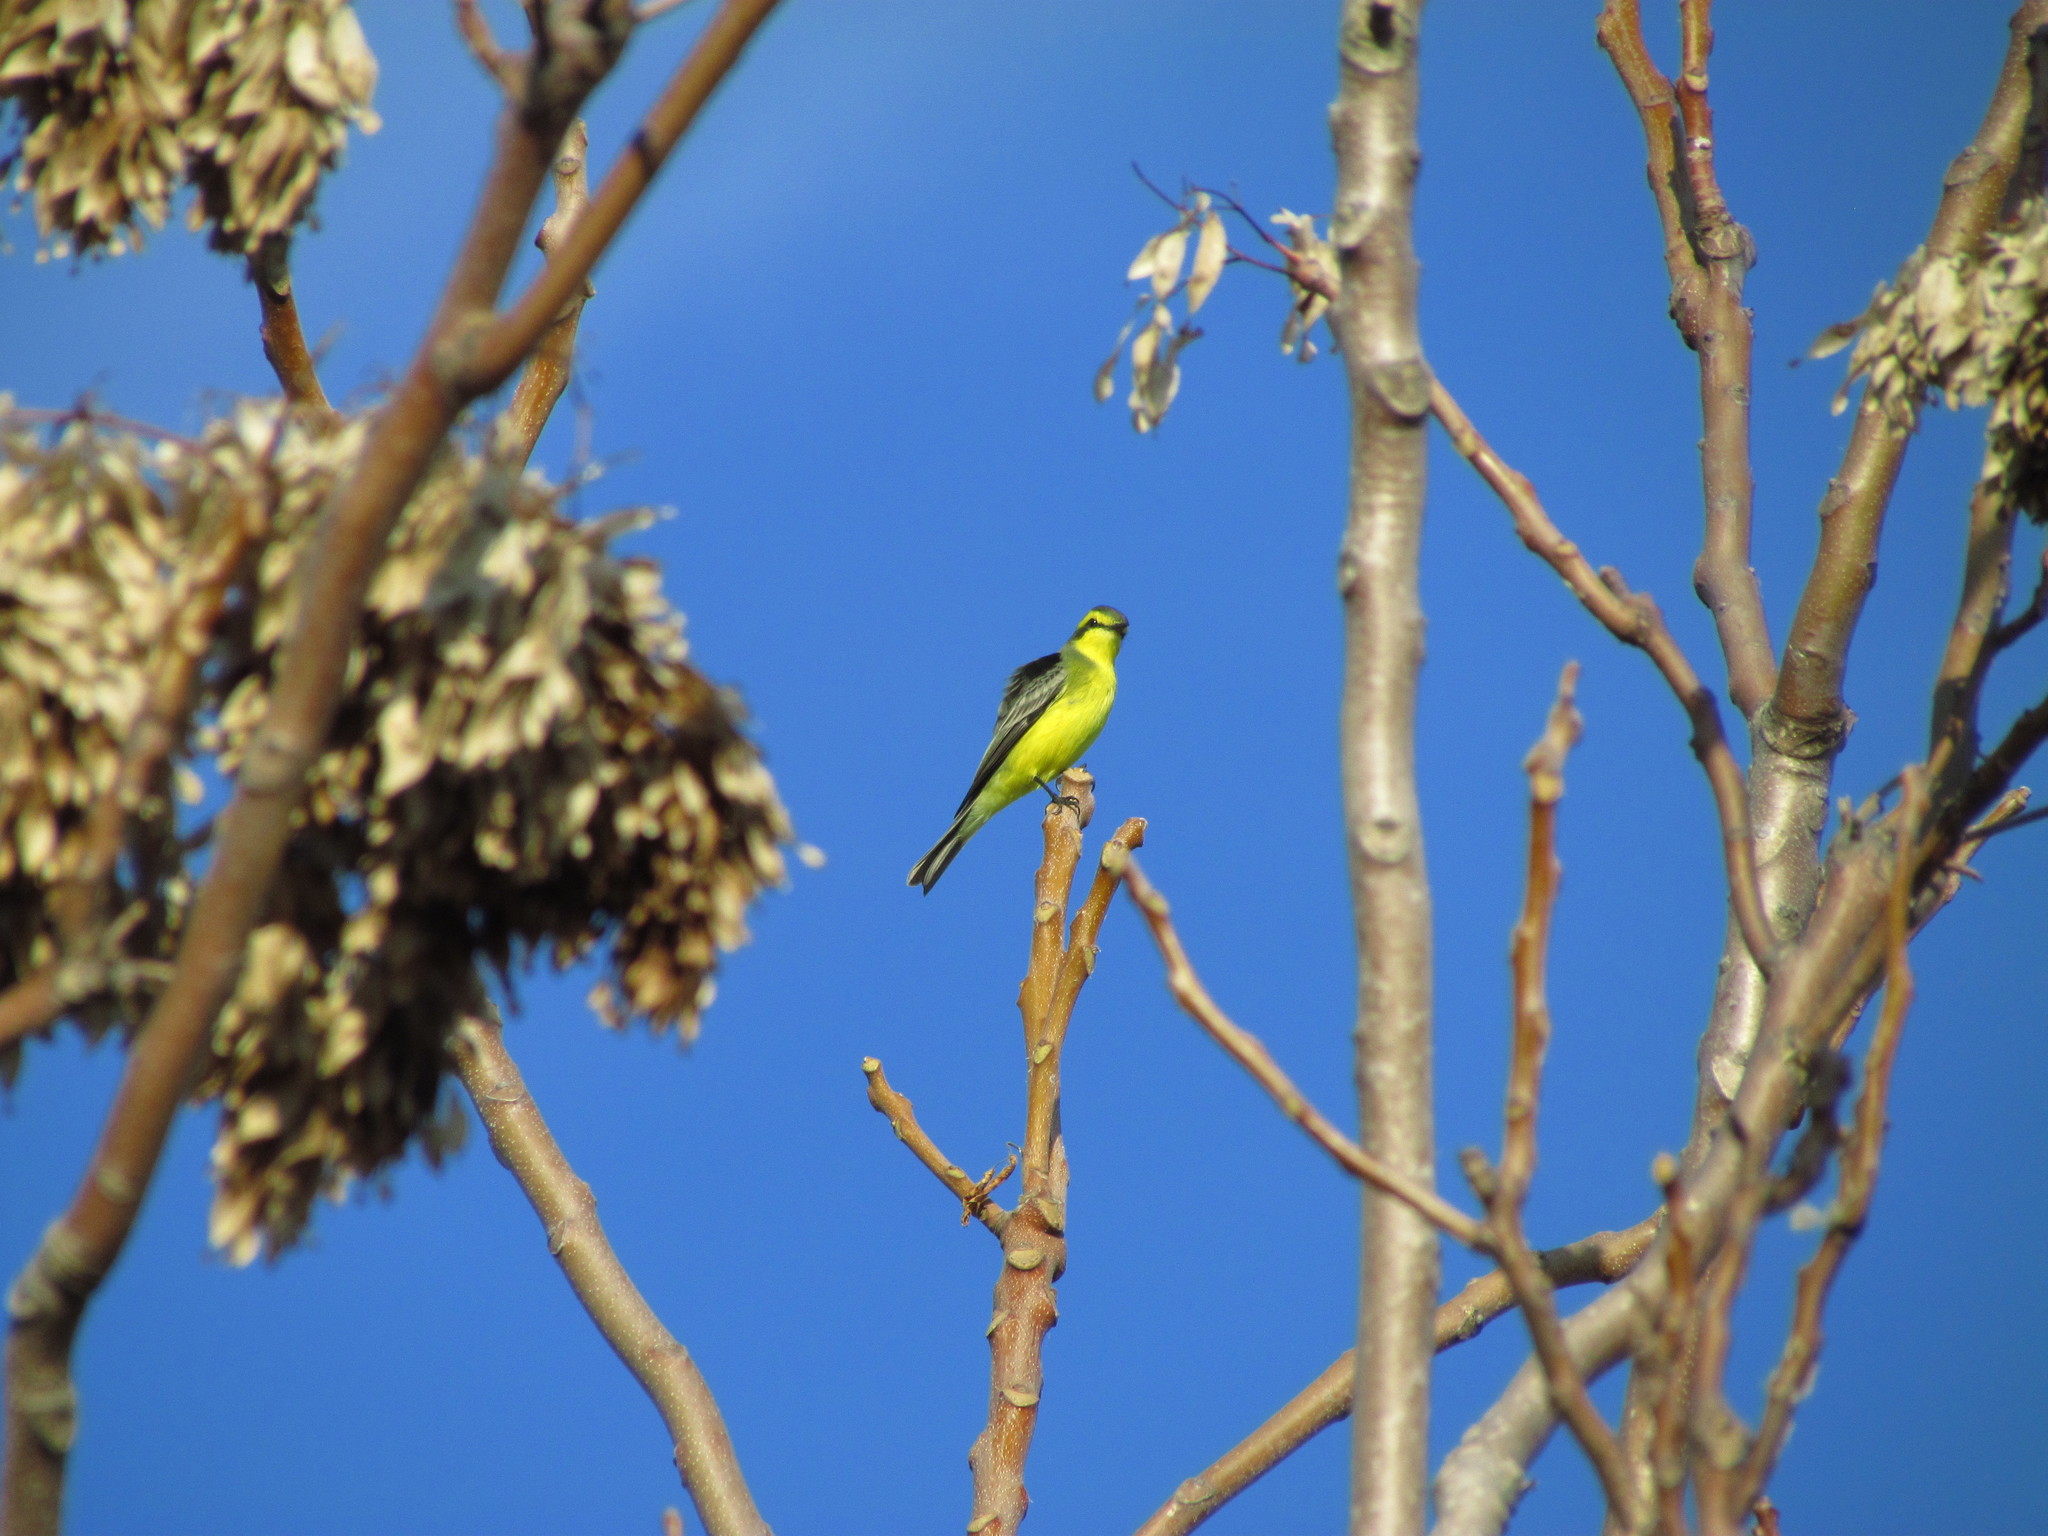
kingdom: Animalia
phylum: Chordata
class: Aves
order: Passeriformes
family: Tyrannidae
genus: Satrapa
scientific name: Satrapa icterophrys
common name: Yellow-browed tyrant
